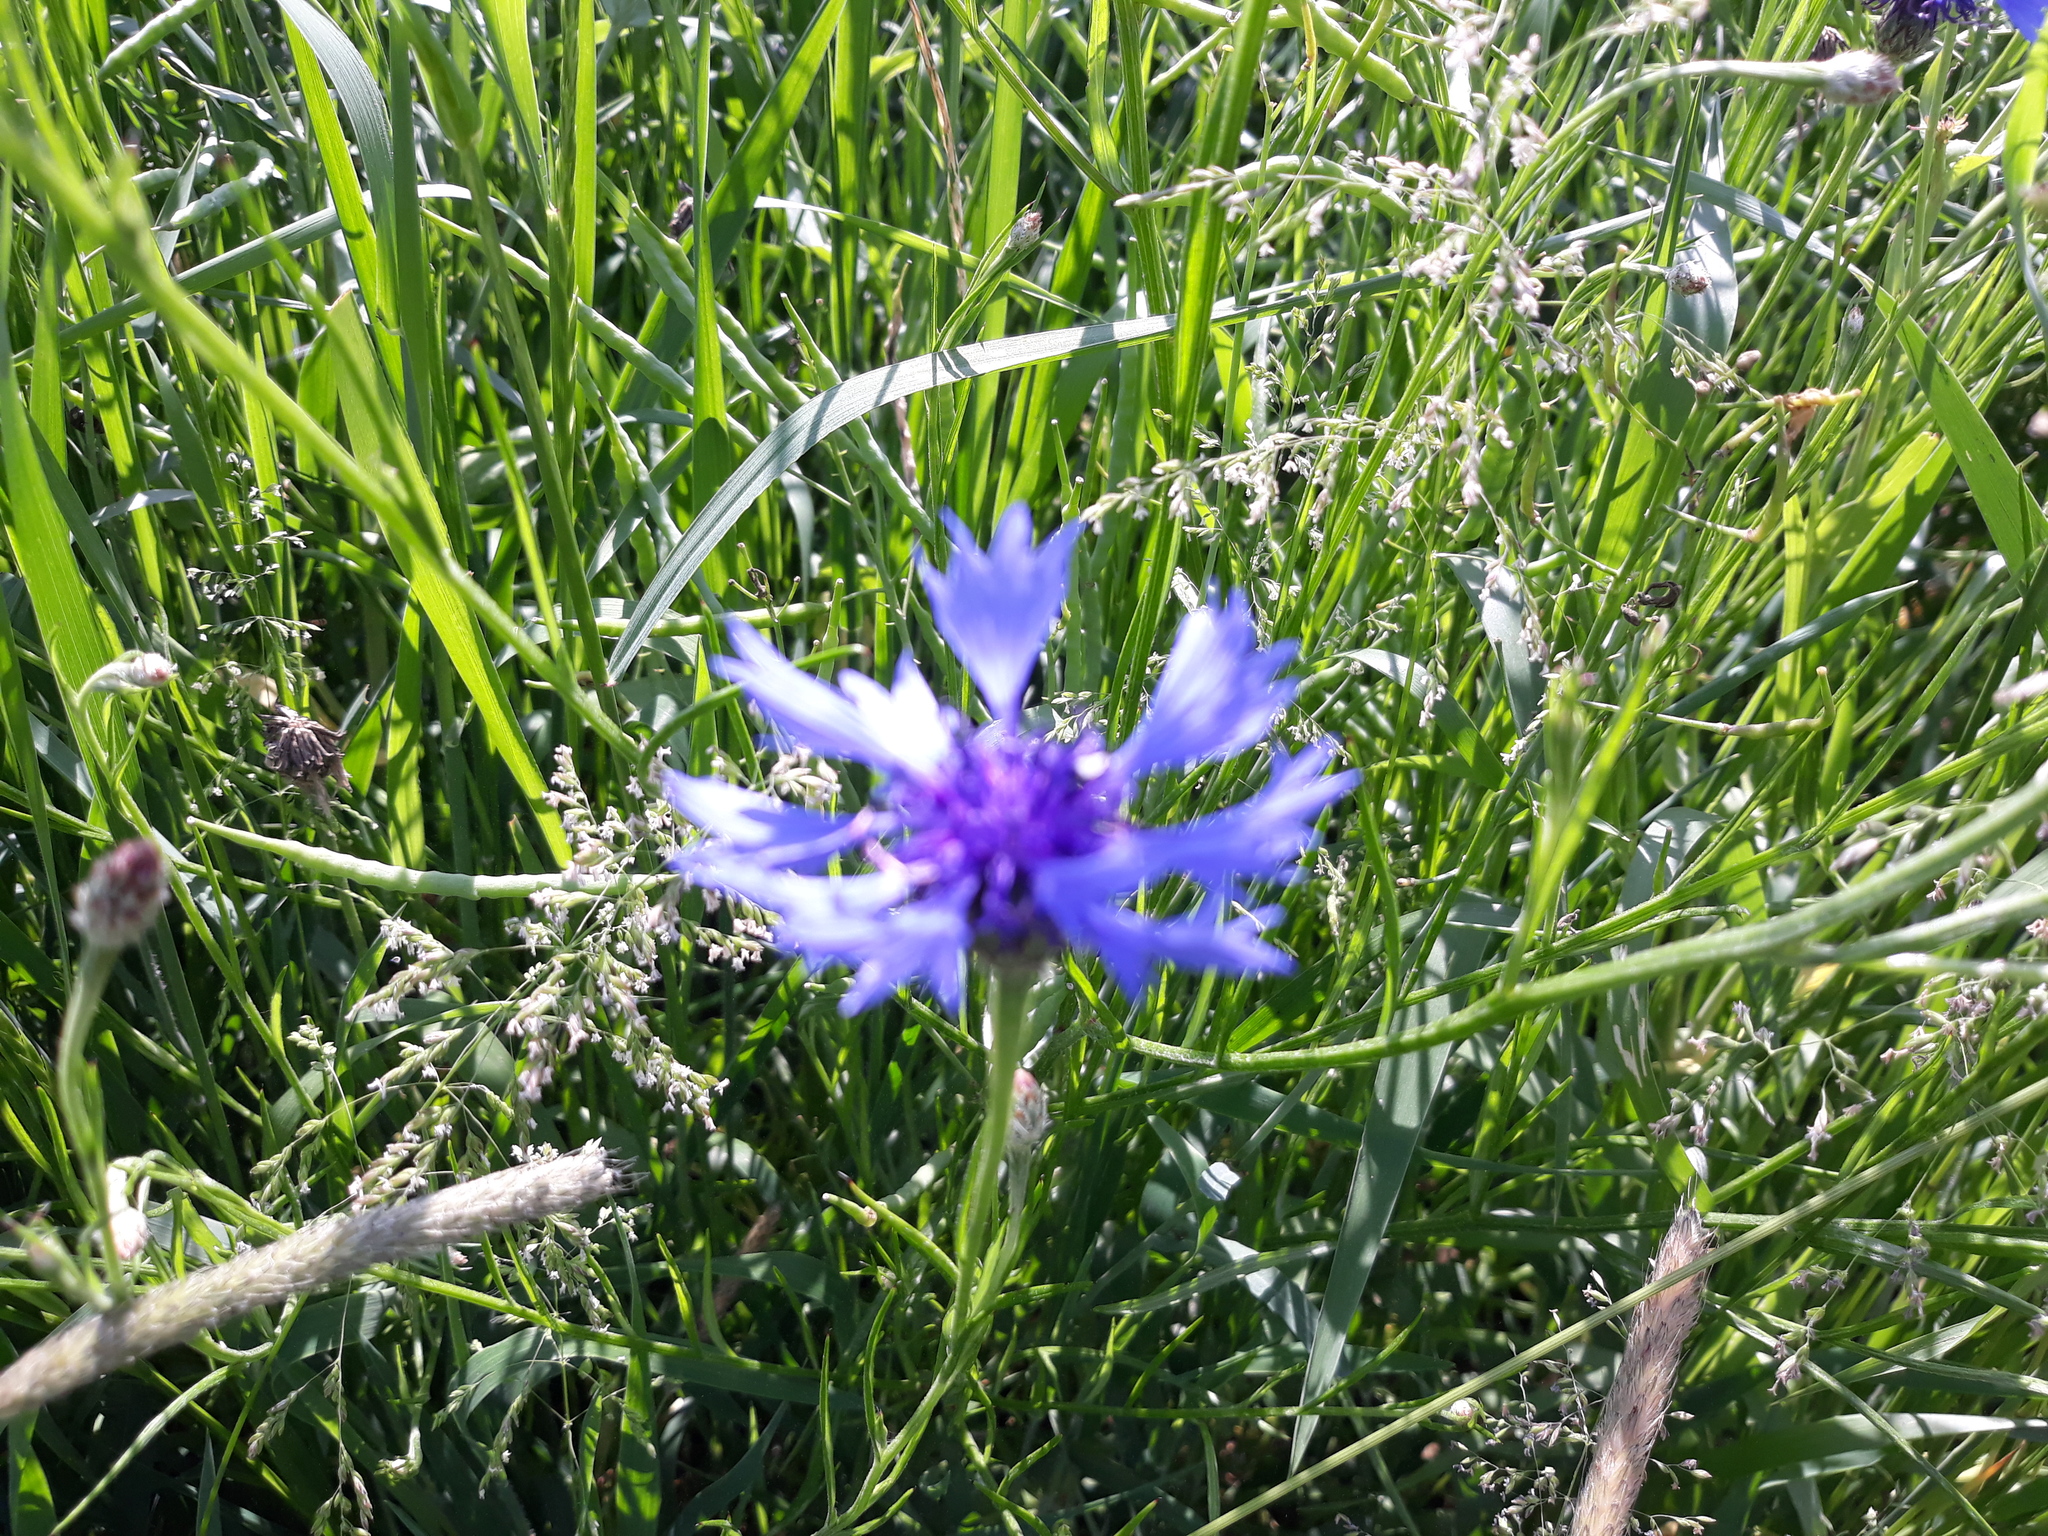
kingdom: Plantae
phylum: Tracheophyta
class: Magnoliopsida
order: Asterales
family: Asteraceae
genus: Centaurea
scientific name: Centaurea cyanus
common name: Cornflower
